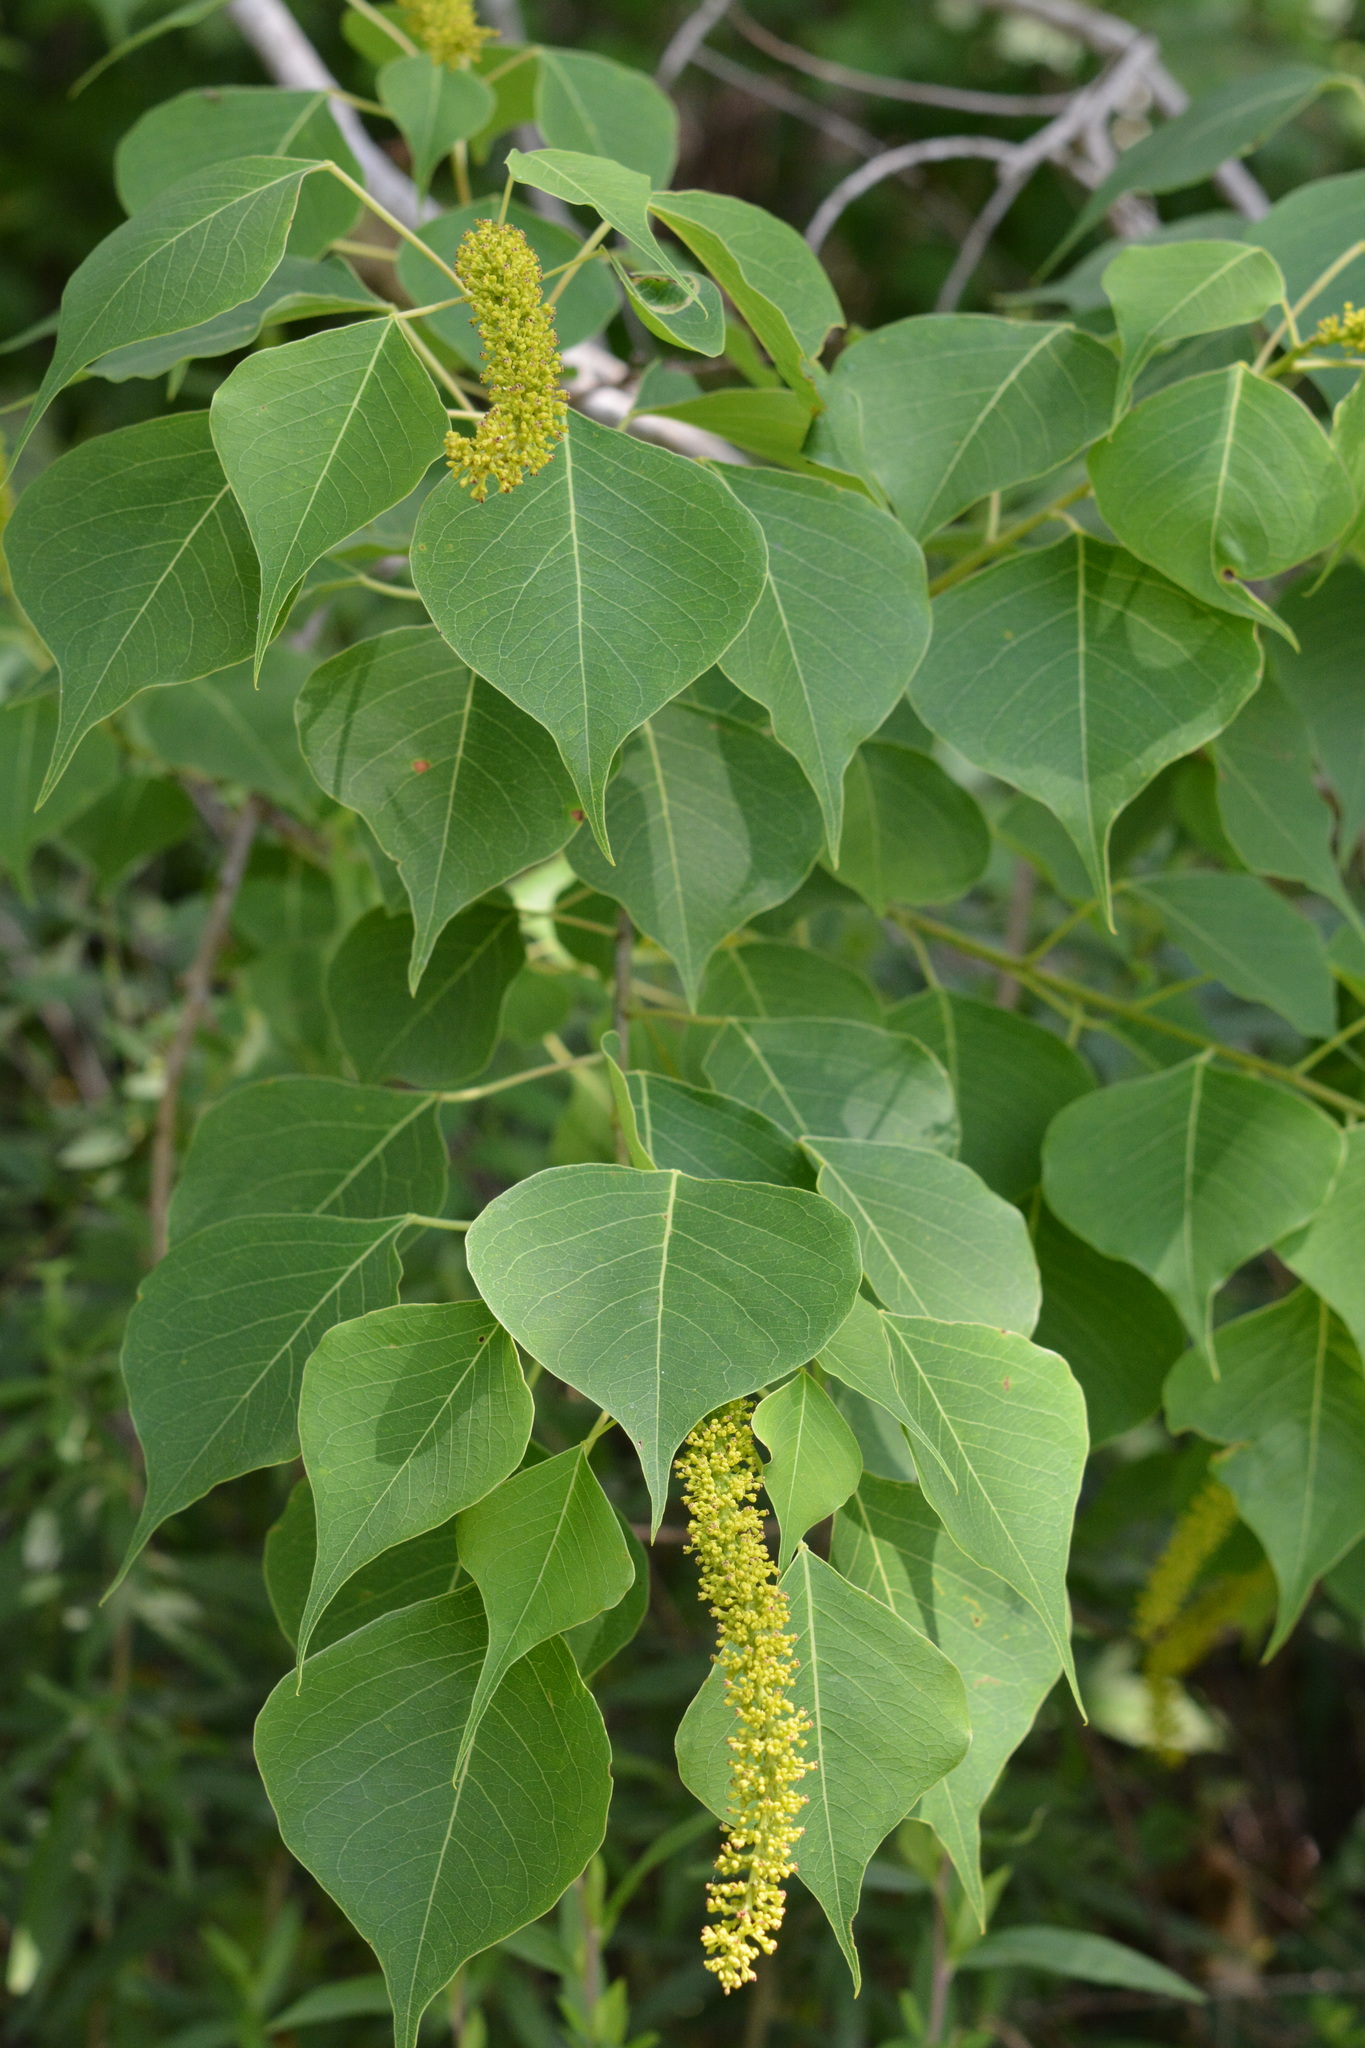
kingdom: Plantae
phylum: Tracheophyta
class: Magnoliopsida
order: Malpighiales
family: Euphorbiaceae
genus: Triadica
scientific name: Triadica sebifera
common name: Chinese tallow
